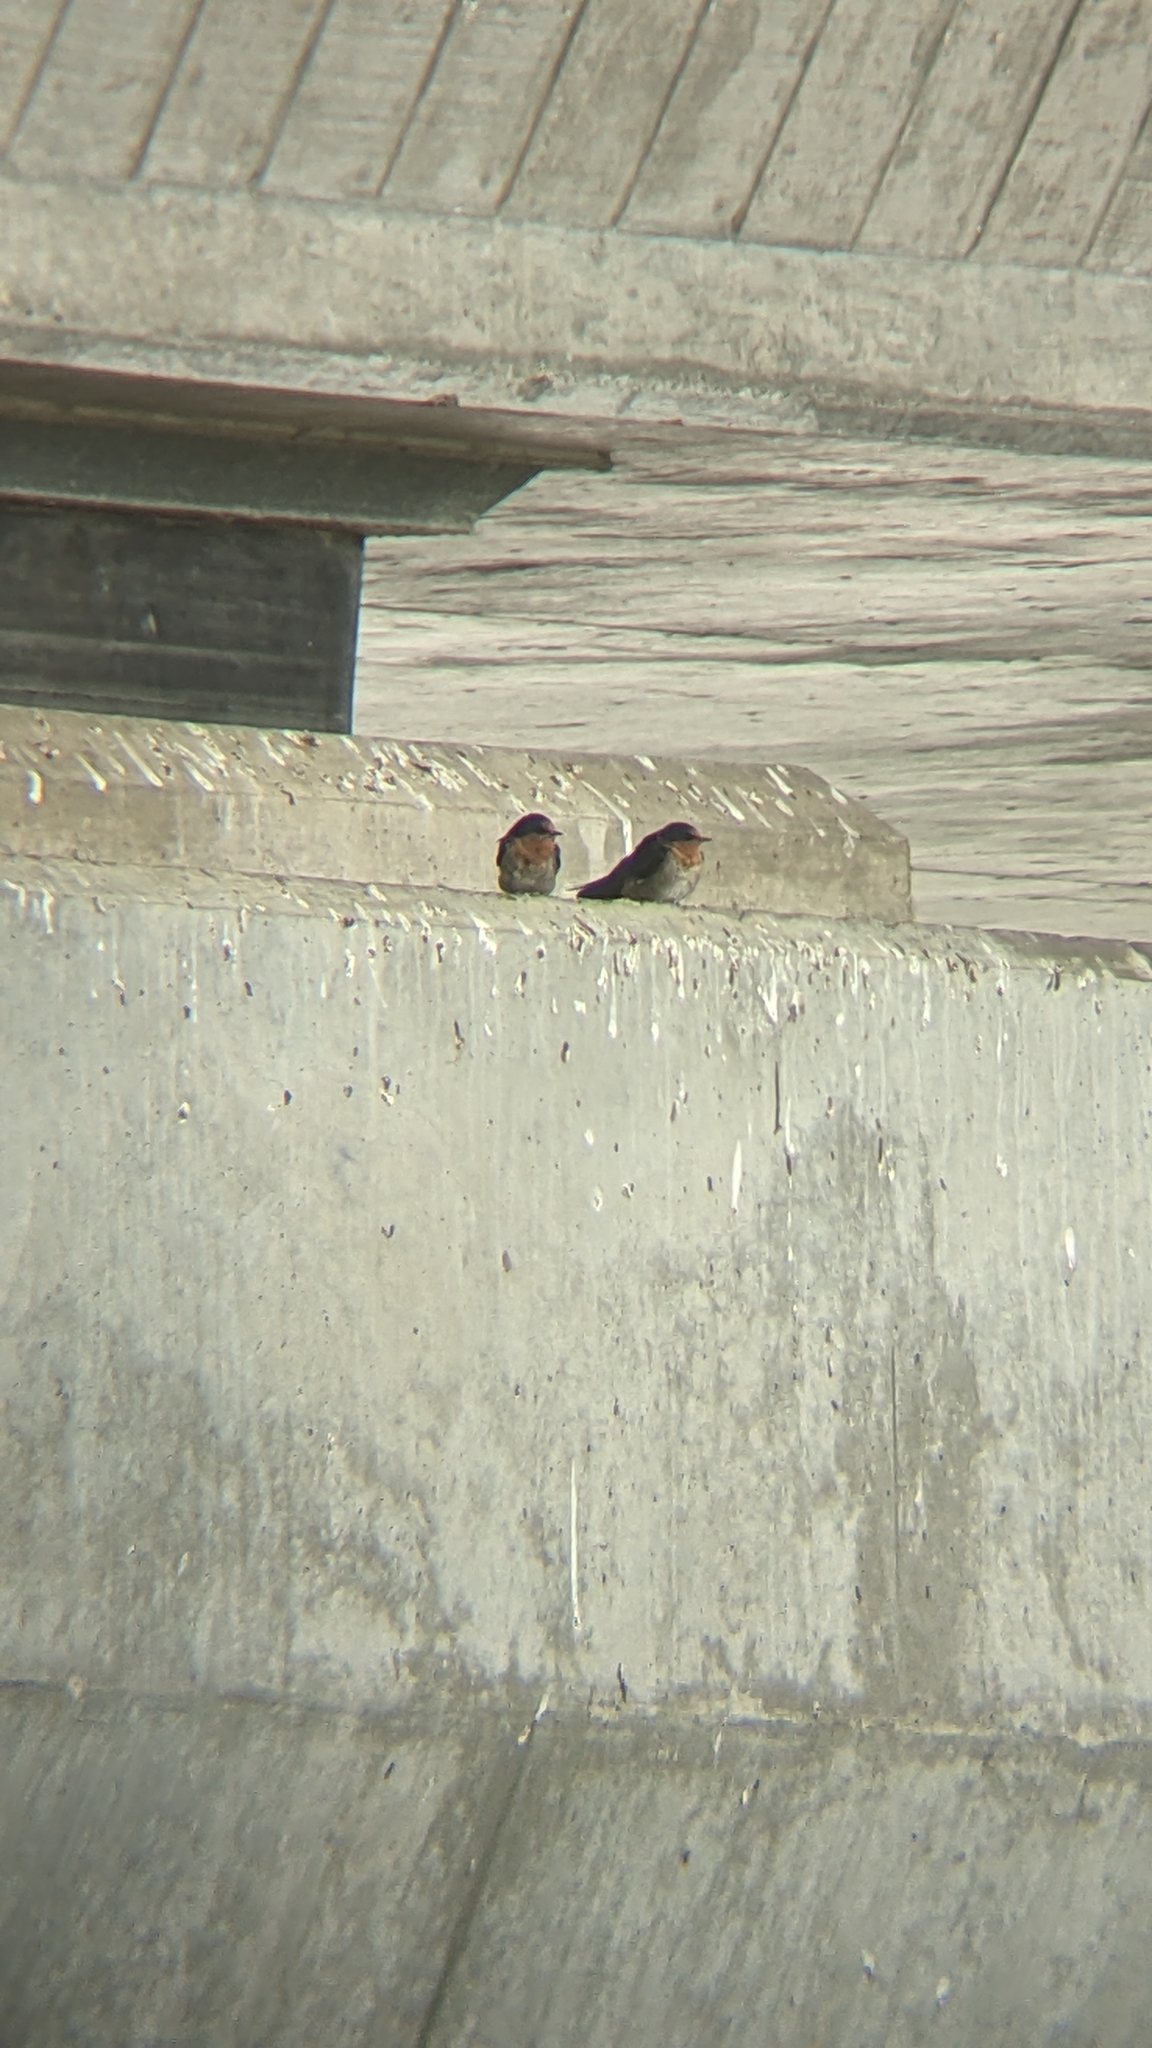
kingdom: Animalia
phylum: Chordata
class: Aves
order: Passeriformes
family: Hirundinidae
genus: Hirundo
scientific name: Hirundo neoxena
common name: Welcome swallow
